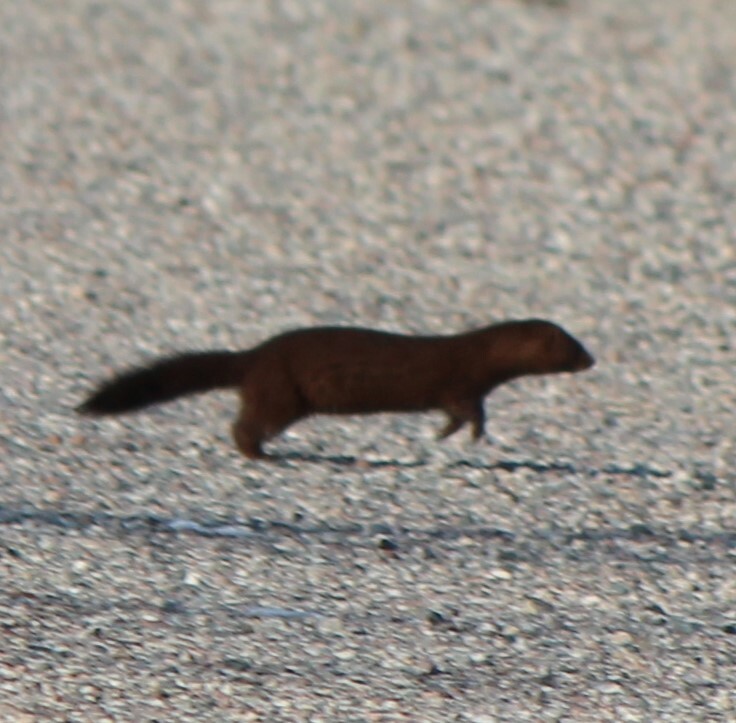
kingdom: Animalia
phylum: Chordata
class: Mammalia
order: Carnivora
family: Mustelidae
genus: Mustela
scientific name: Mustela
